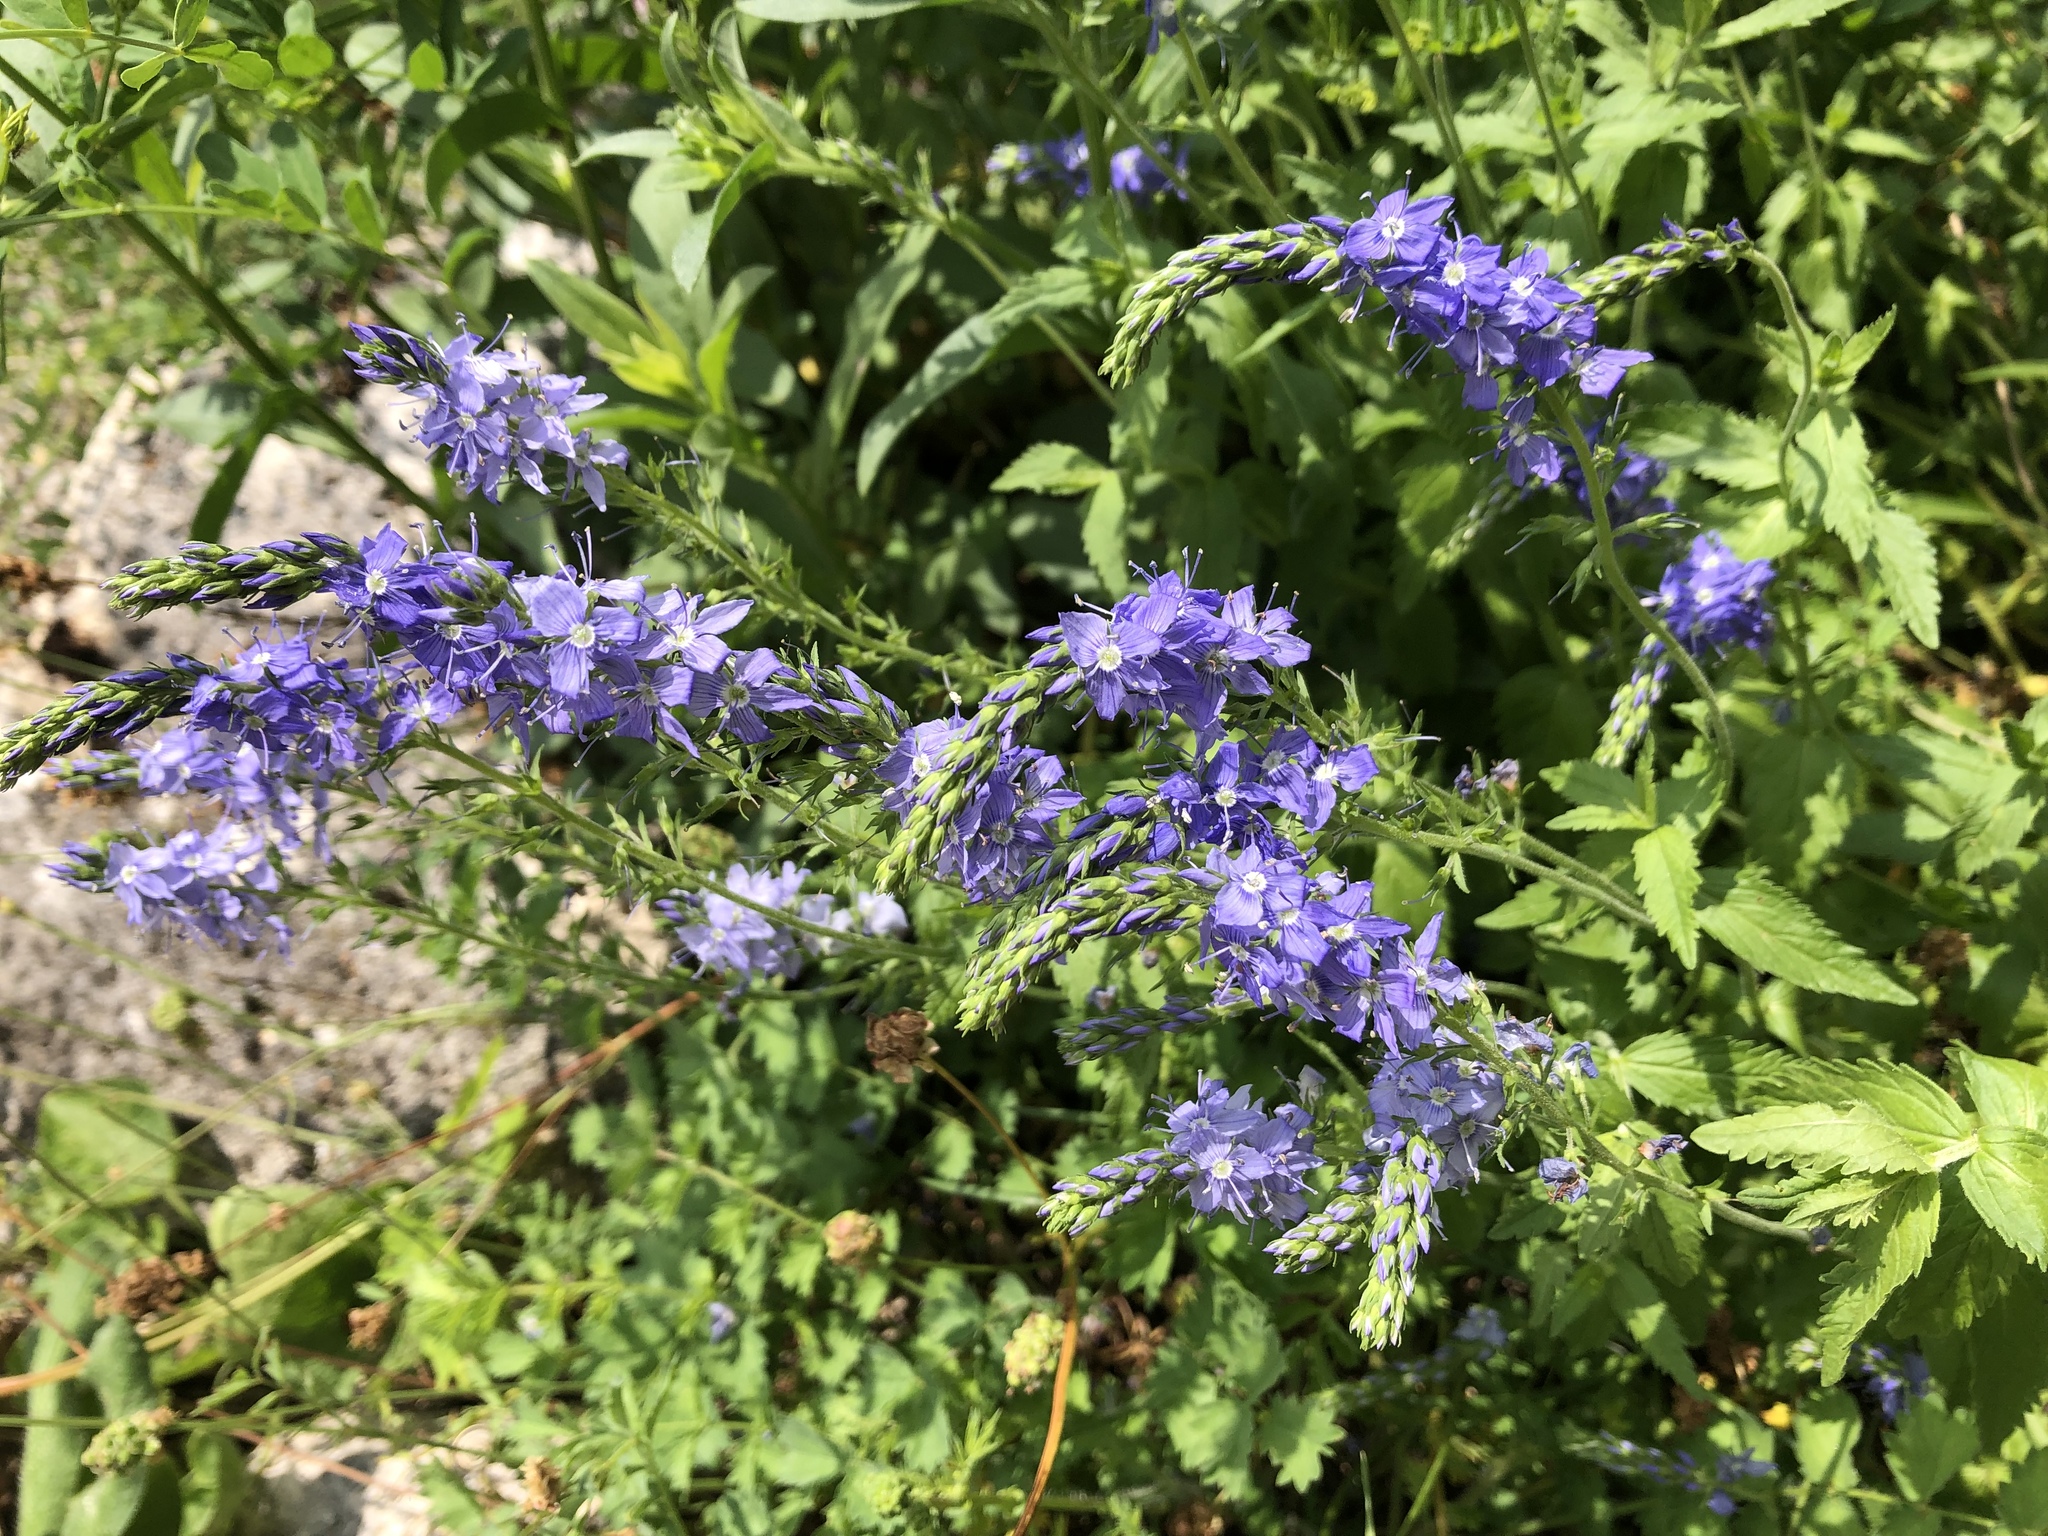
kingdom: Plantae
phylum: Tracheophyta
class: Magnoliopsida
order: Lamiales
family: Plantaginaceae
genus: Veronica
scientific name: Veronica teucrium
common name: Large speedwell
